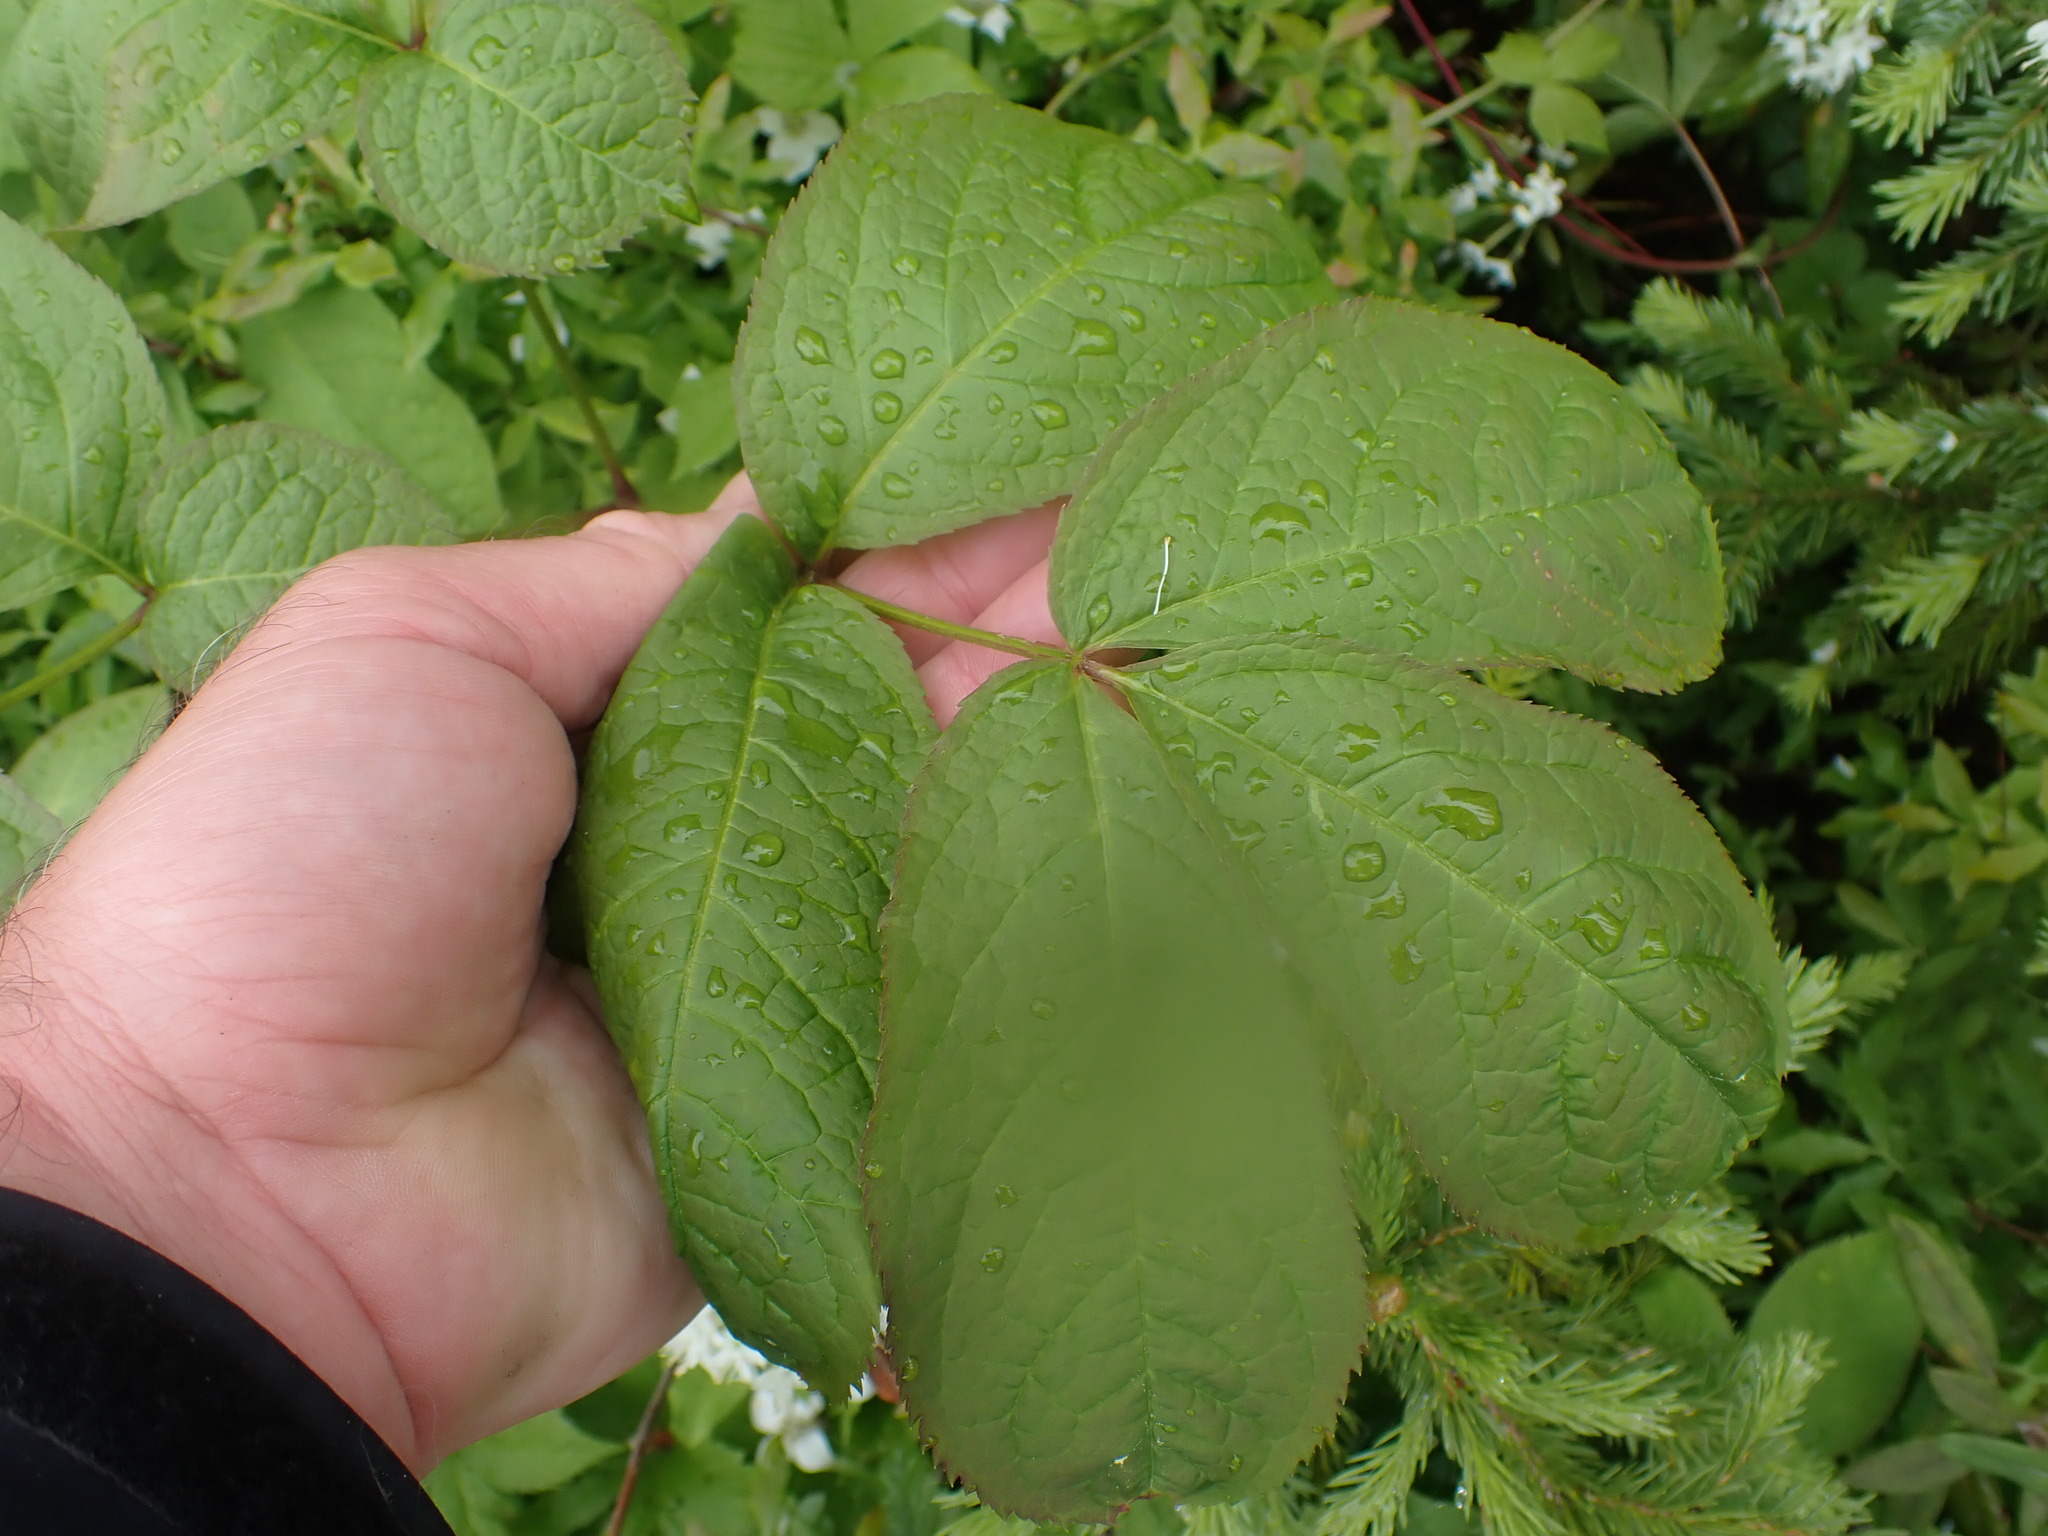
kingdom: Plantae
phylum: Tracheophyta
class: Magnoliopsida
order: Apiales
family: Araliaceae
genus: Aralia
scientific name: Aralia nudicaulis
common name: Wild sarsaparilla
